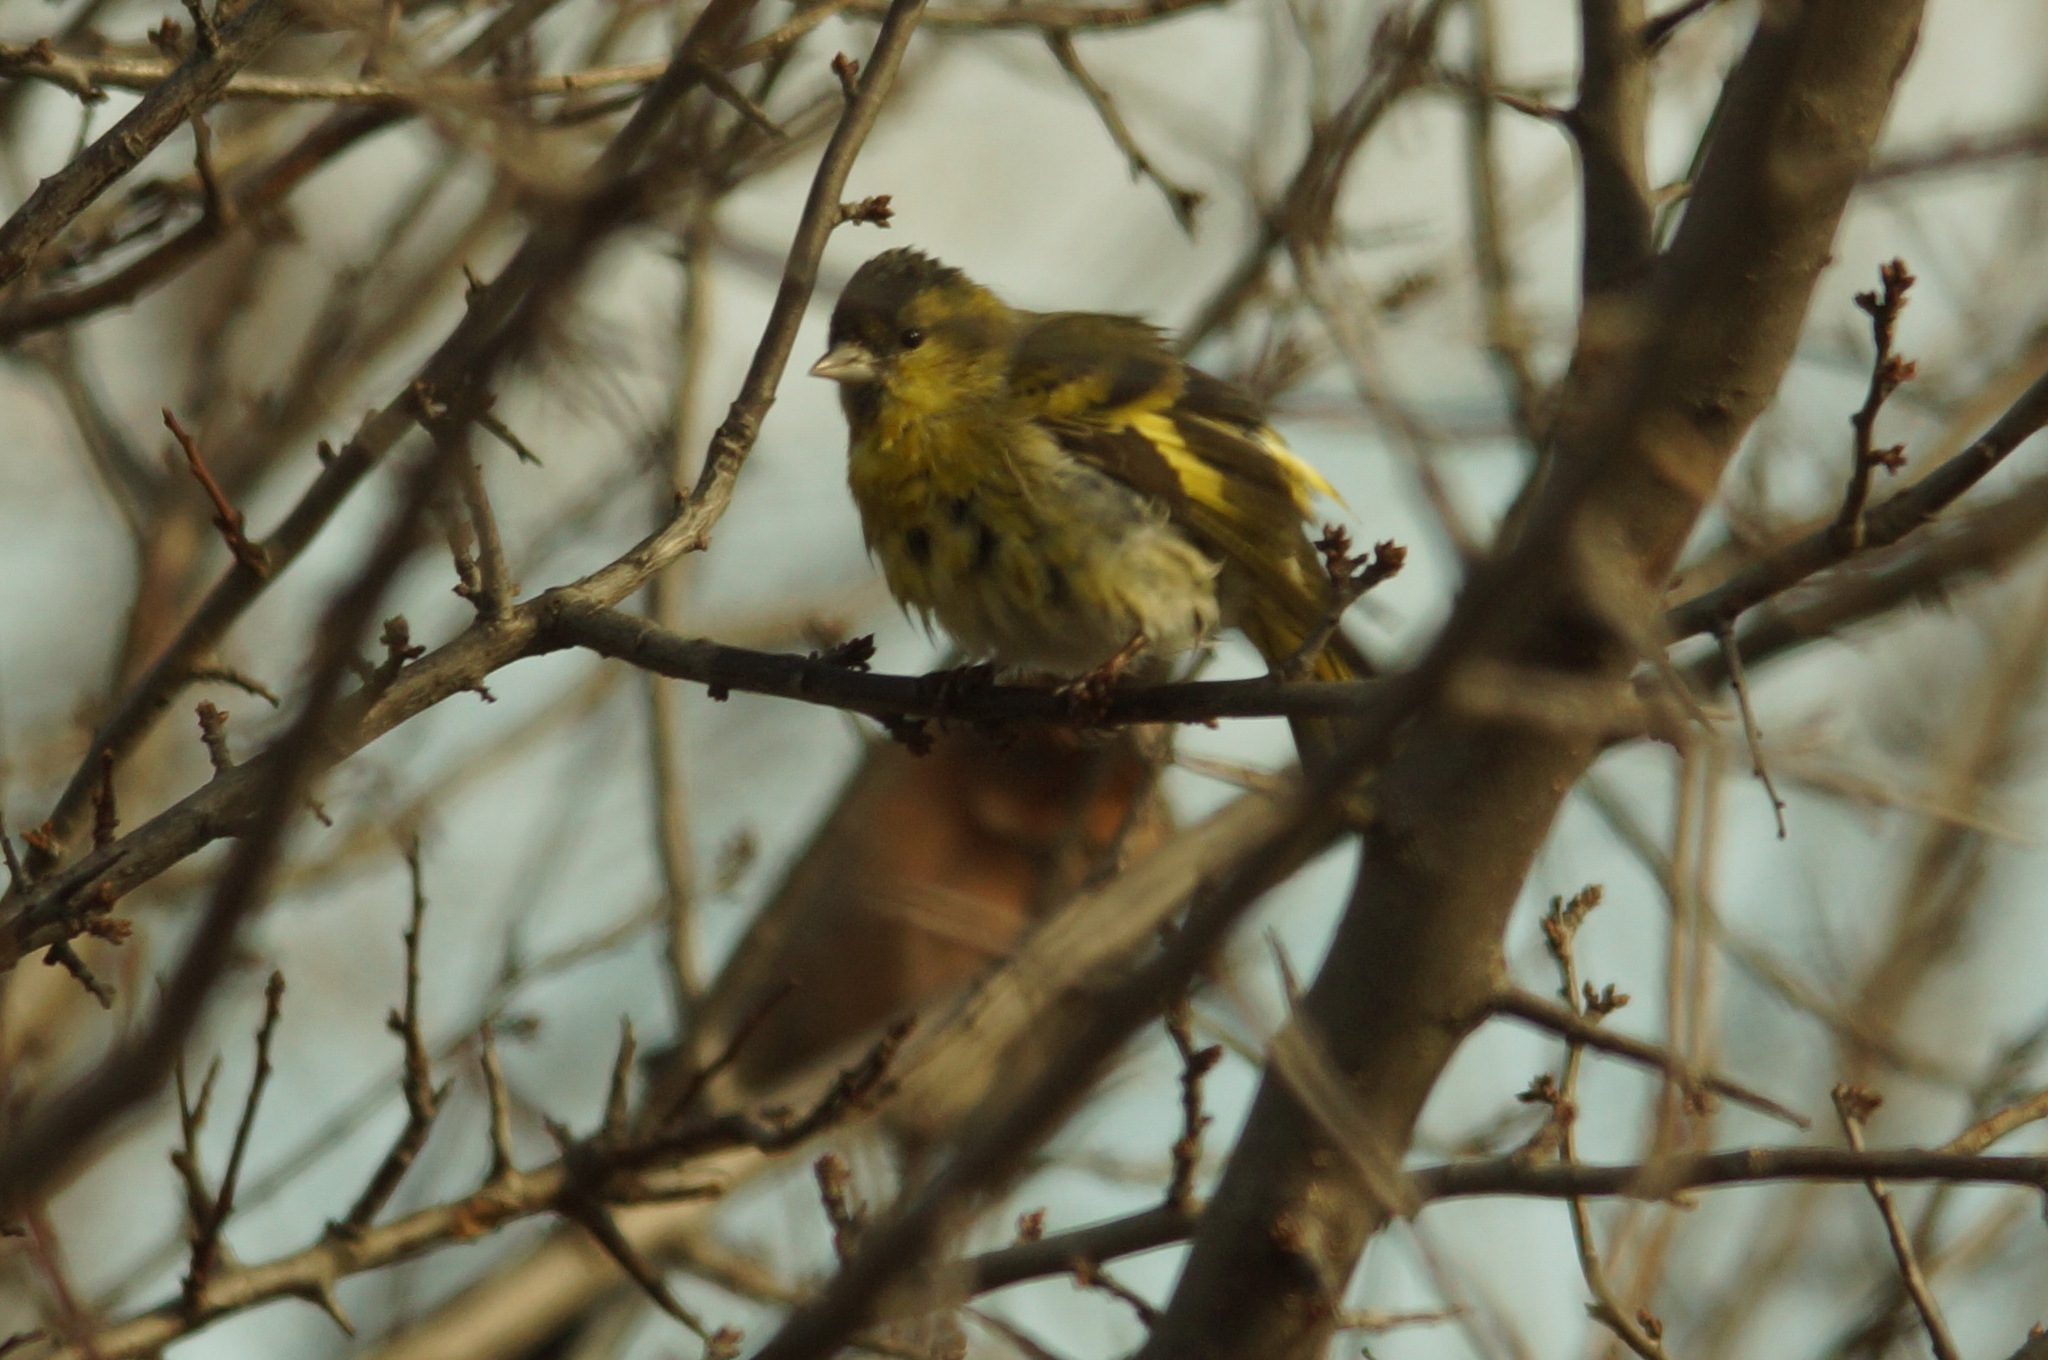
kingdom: Animalia
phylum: Chordata
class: Aves
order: Passeriformes
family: Fringillidae
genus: Spinus
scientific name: Spinus spinus
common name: Eurasian siskin
